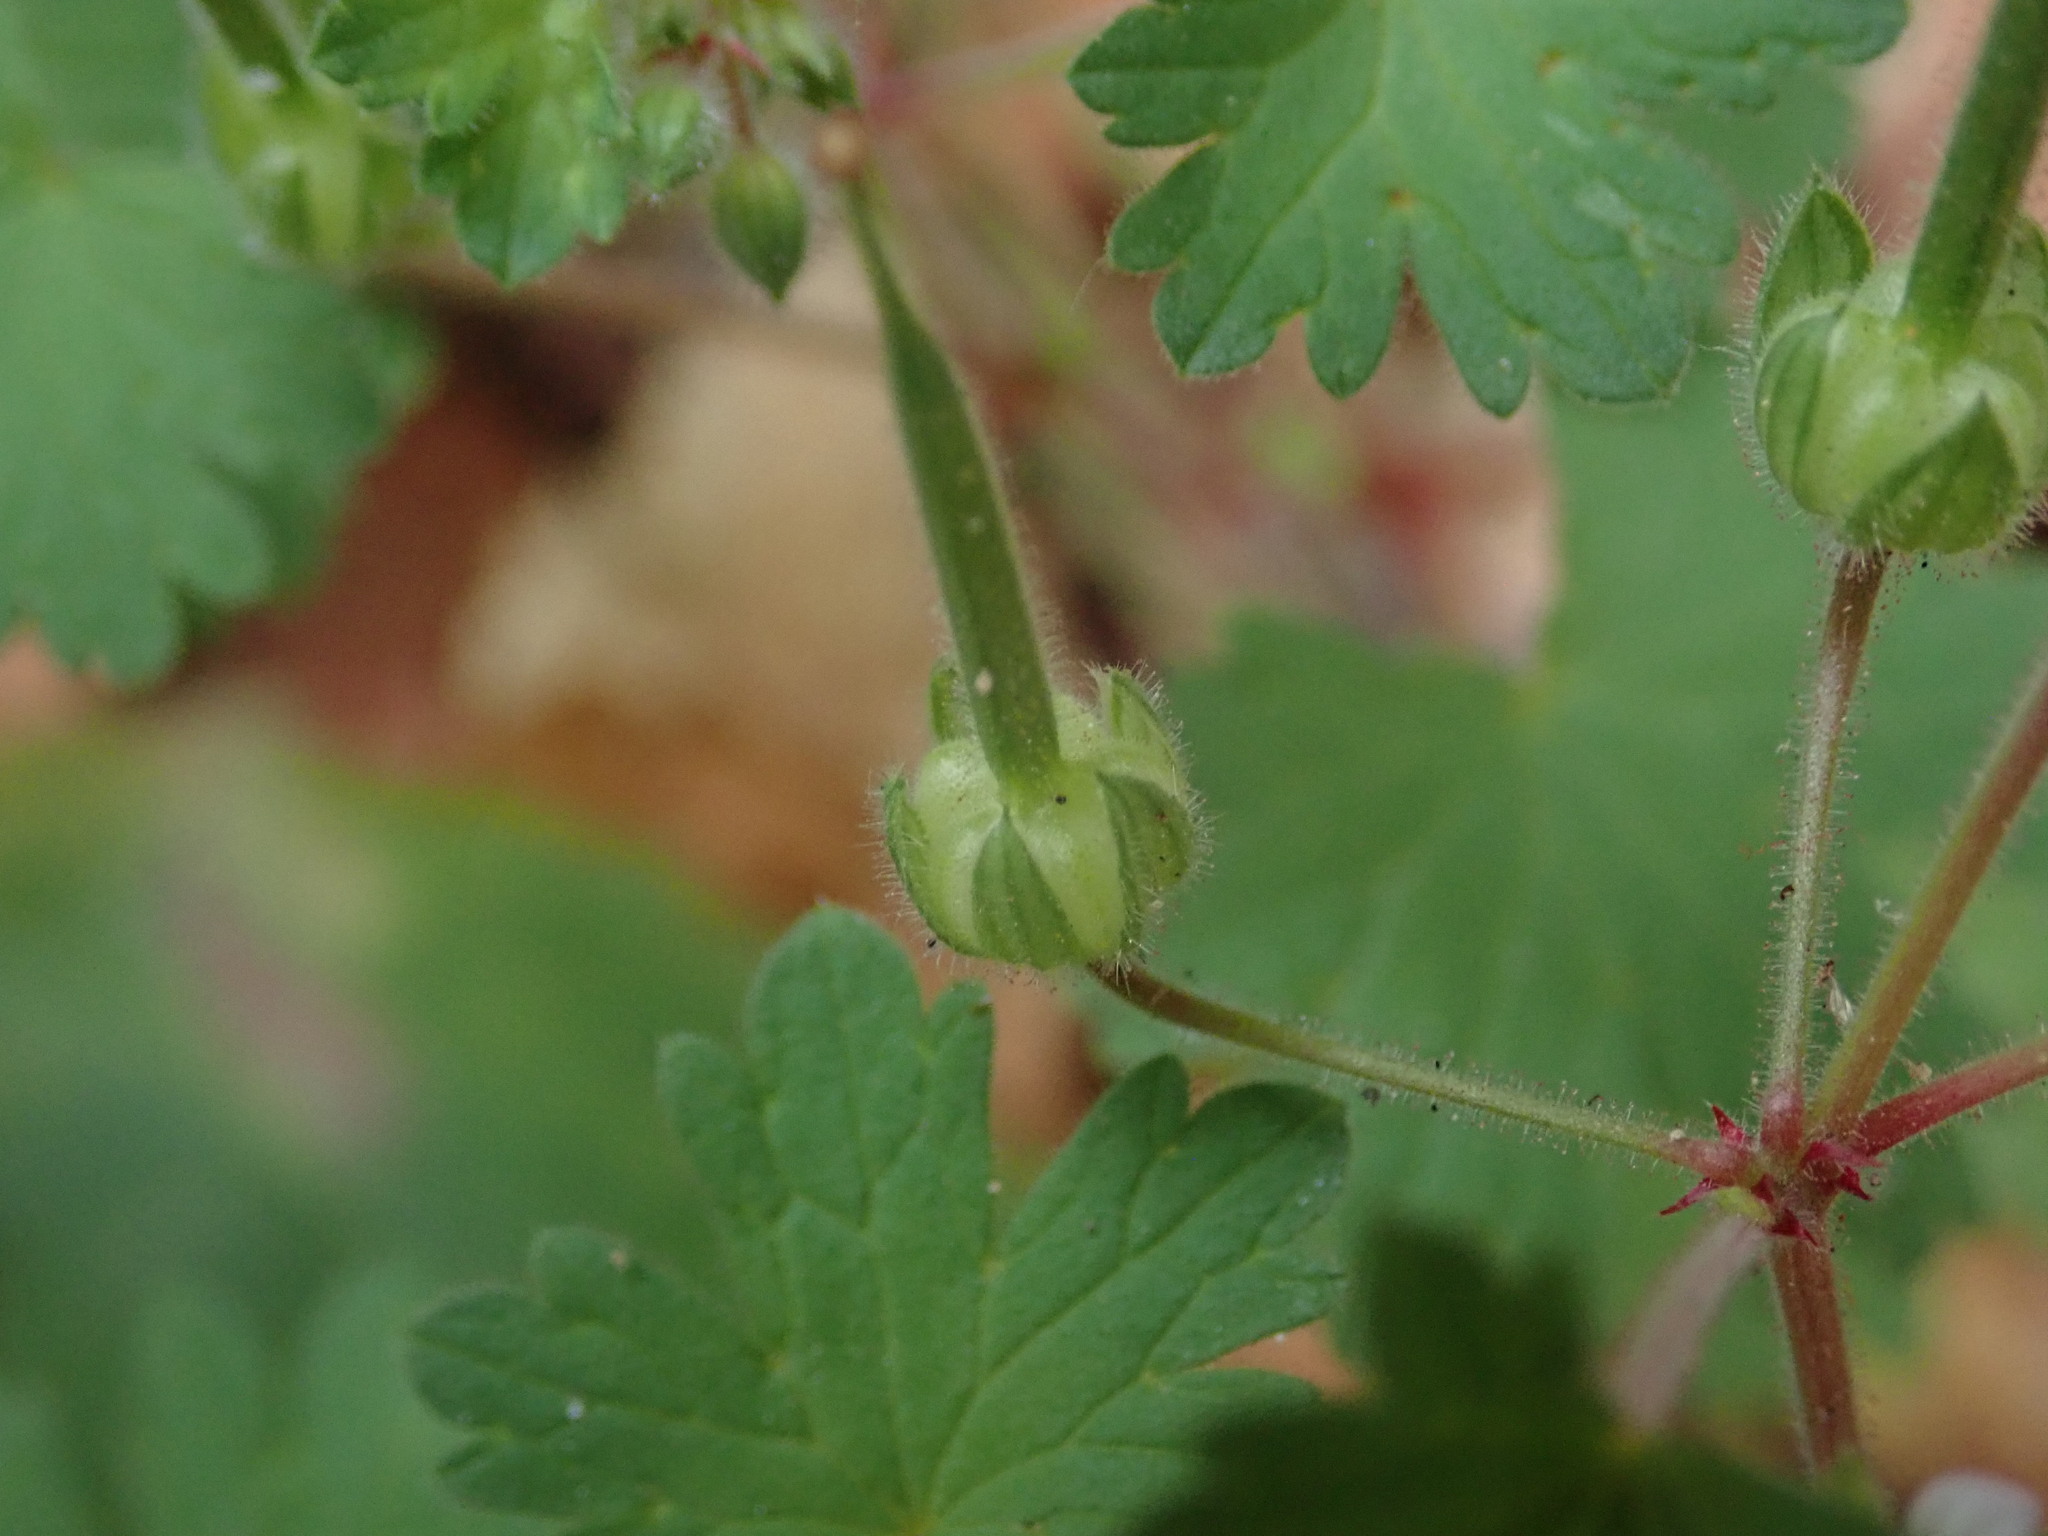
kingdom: Plantae
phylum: Tracheophyta
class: Magnoliopsida
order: Geraniales
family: Geraniaceae
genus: Geranium
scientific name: Geranium rotundifolium
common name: Round-leaved crane's-bill
